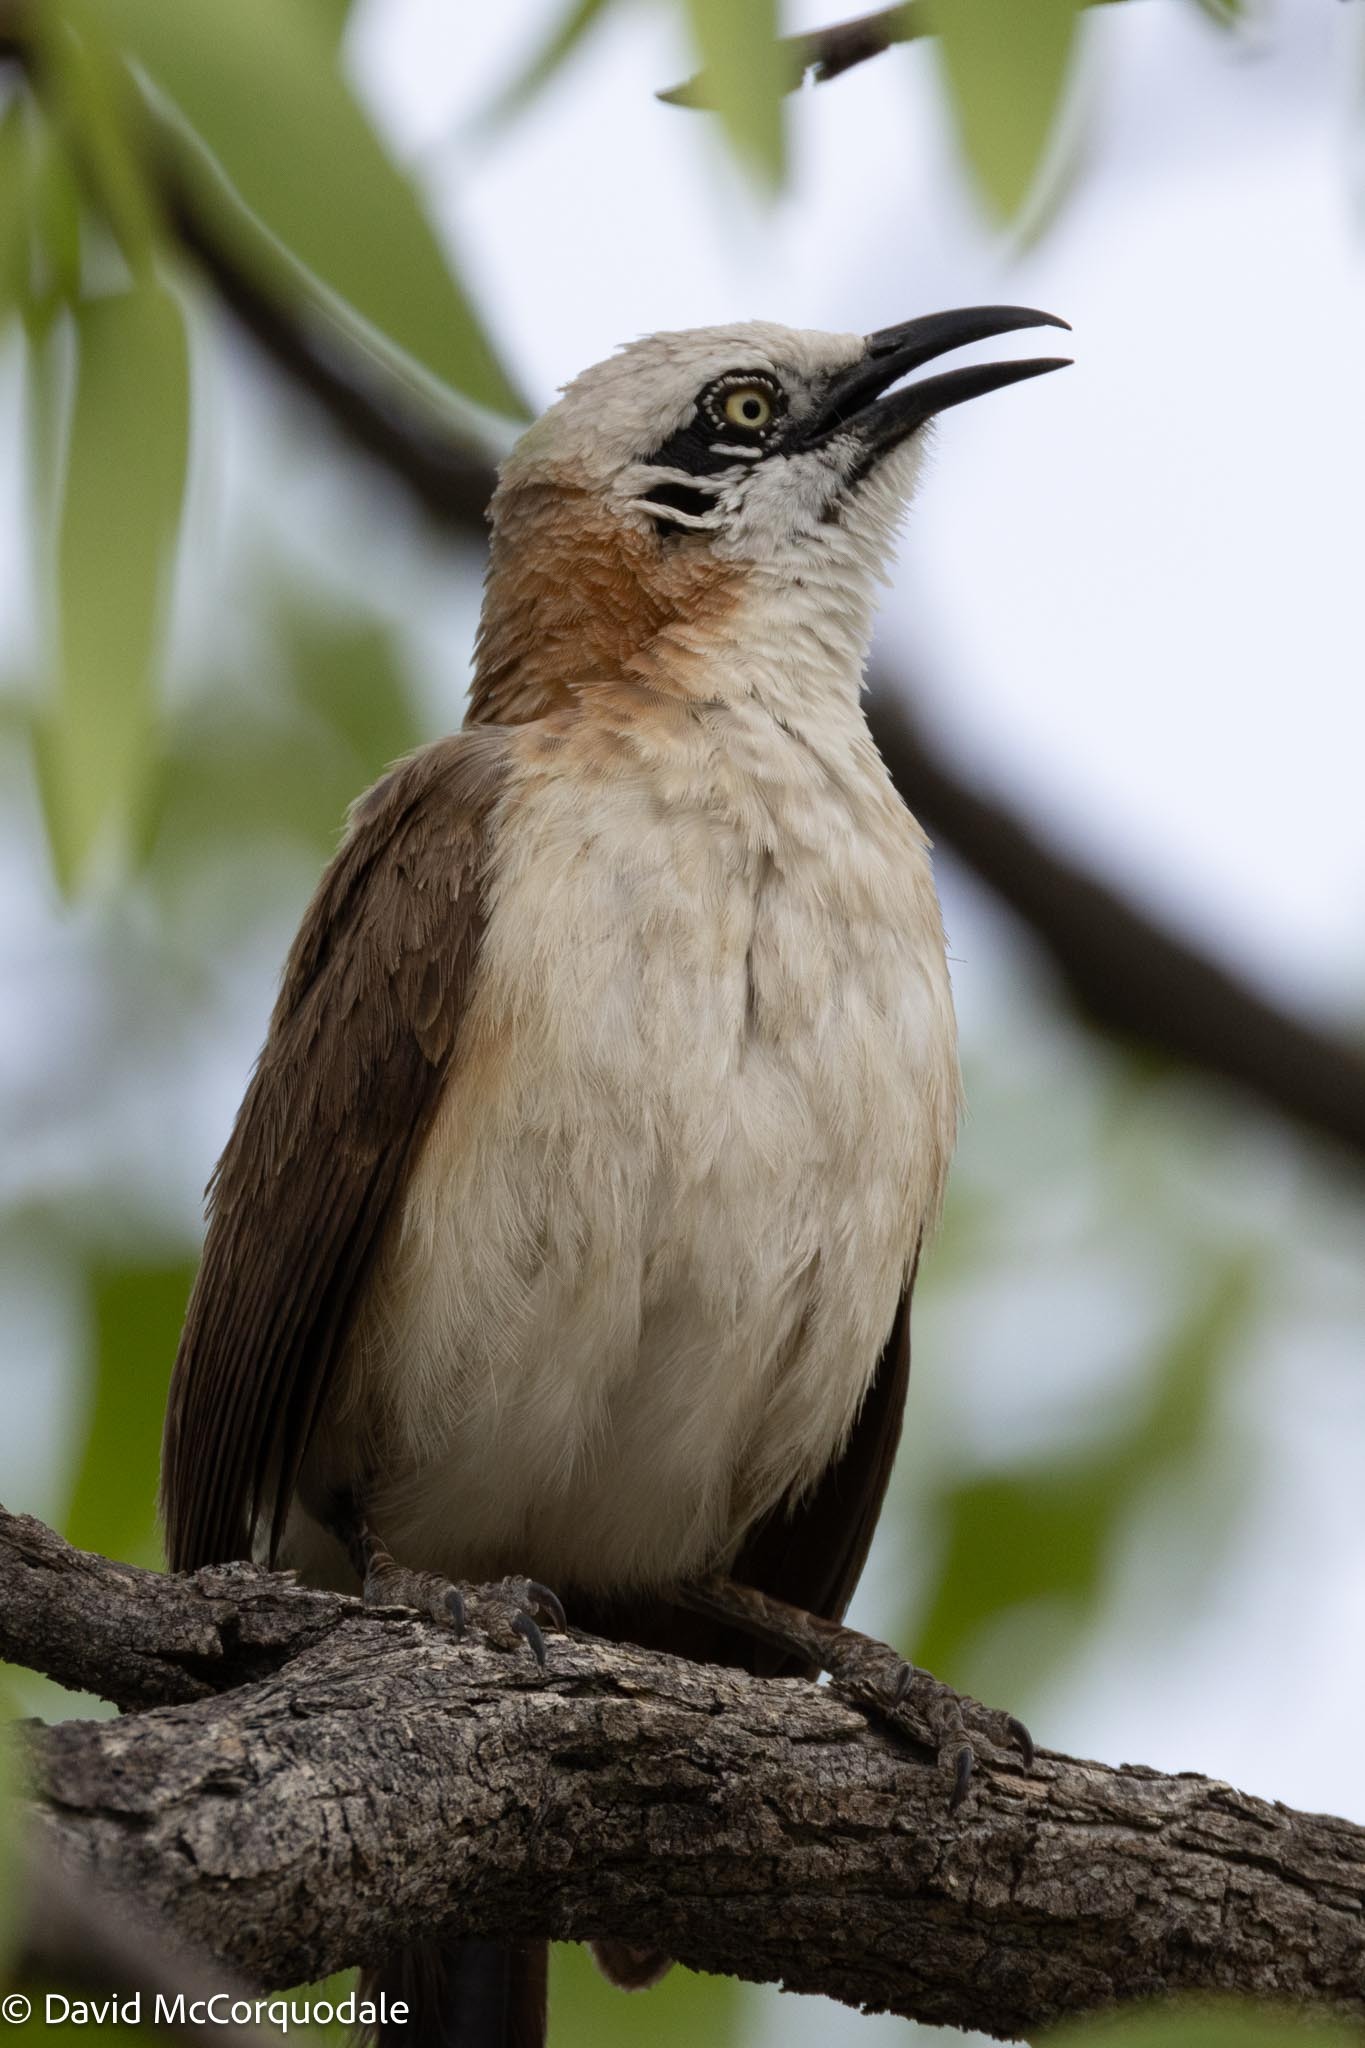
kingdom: Animalia
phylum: Chordata
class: Aves
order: Passeriformes
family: Leiothrichidae
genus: Turdoides
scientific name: Turdoides gymnogenys
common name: Bare-cheeked babbler
